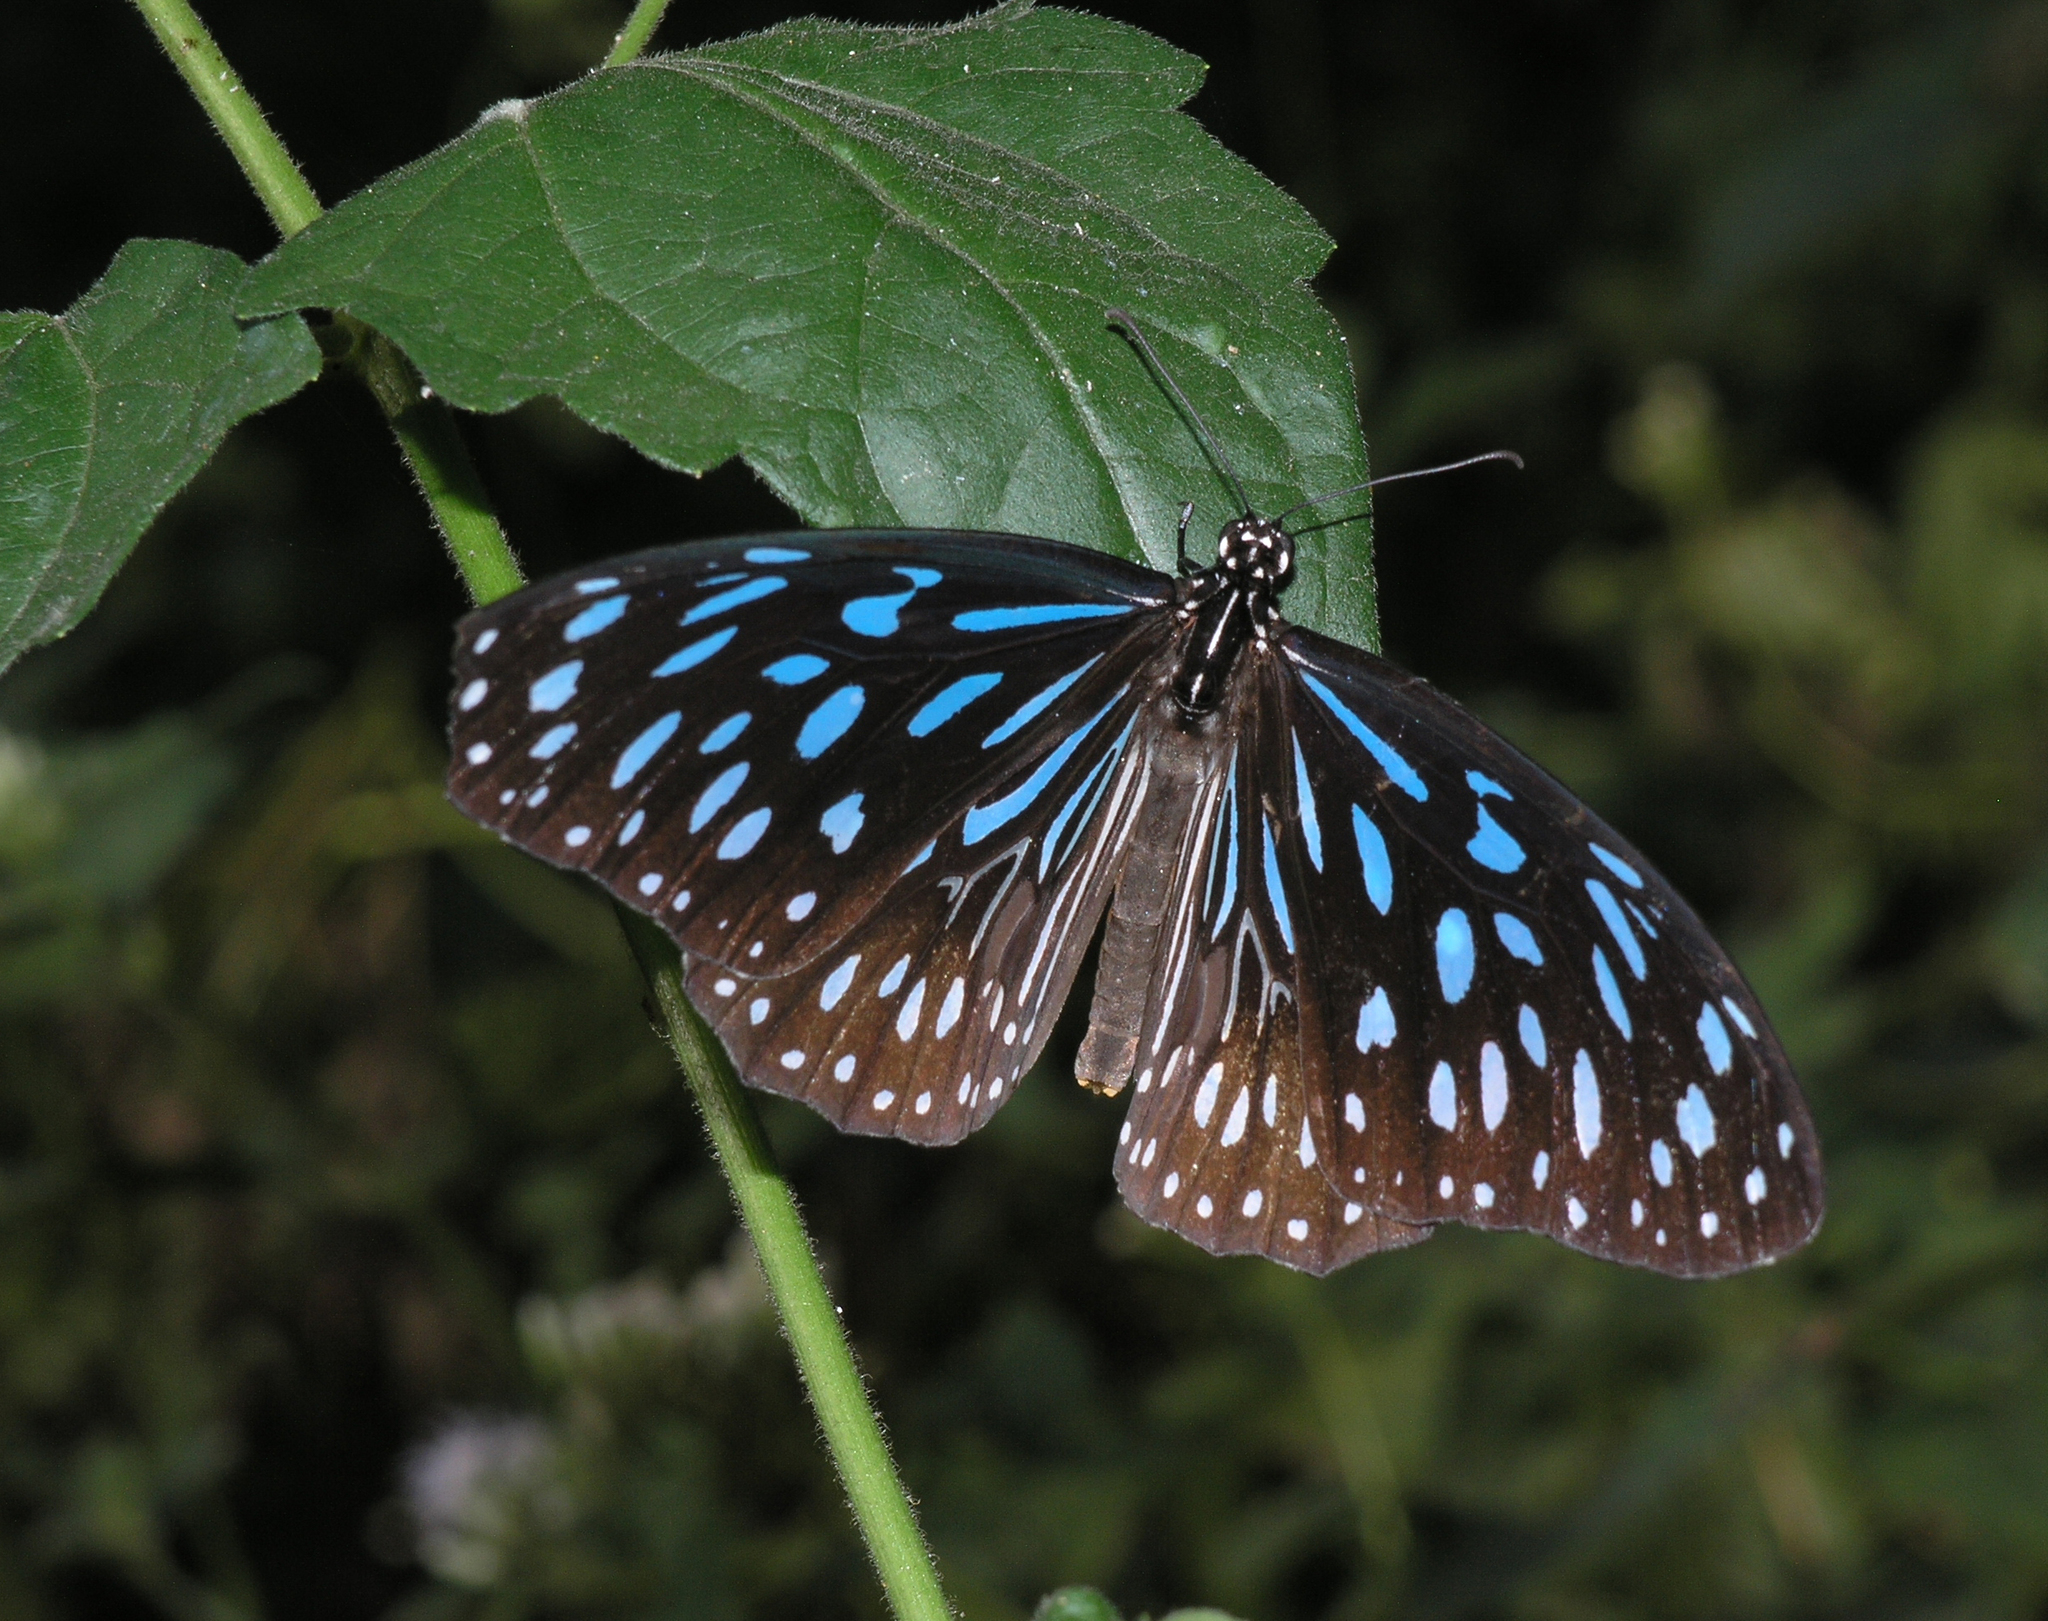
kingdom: Animalia
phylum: Arthropoda
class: Insecta
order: Lepidoptera
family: Nymphalidae
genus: Tirumala
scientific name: Tirumala septentrionis
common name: Dark blue tiger butterfly
